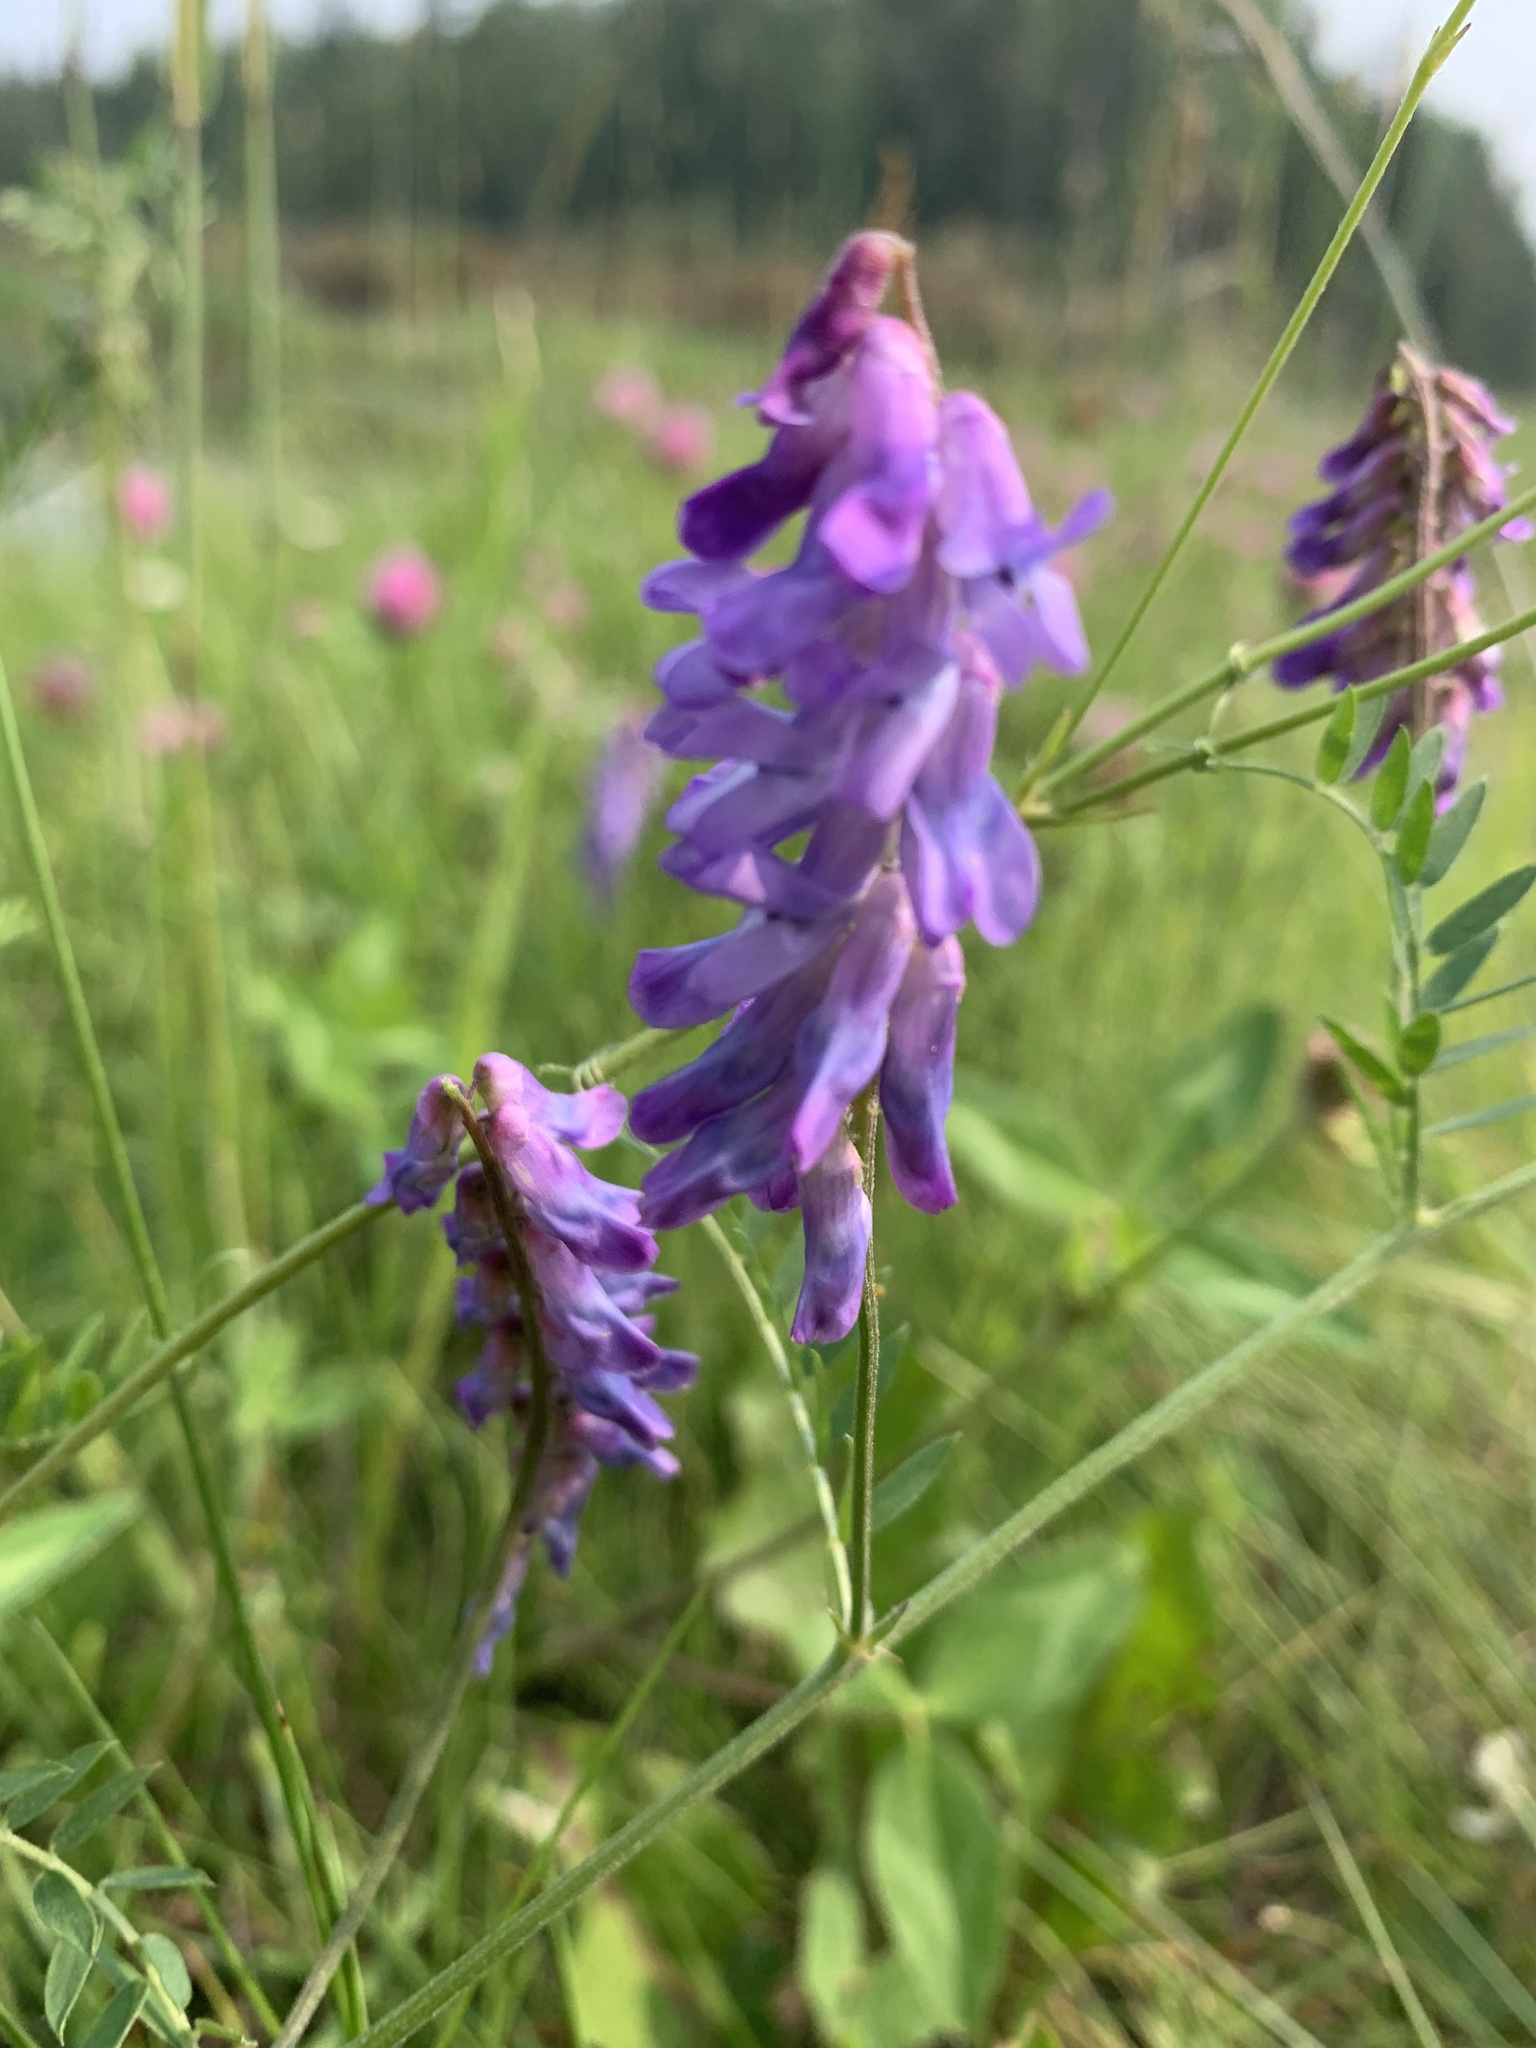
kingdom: Plantae
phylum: Tracheophyta
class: Magnoliopsida
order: Fabales
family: Fabaceae
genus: Vicia
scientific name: Vicia cracca
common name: Bird vetch
